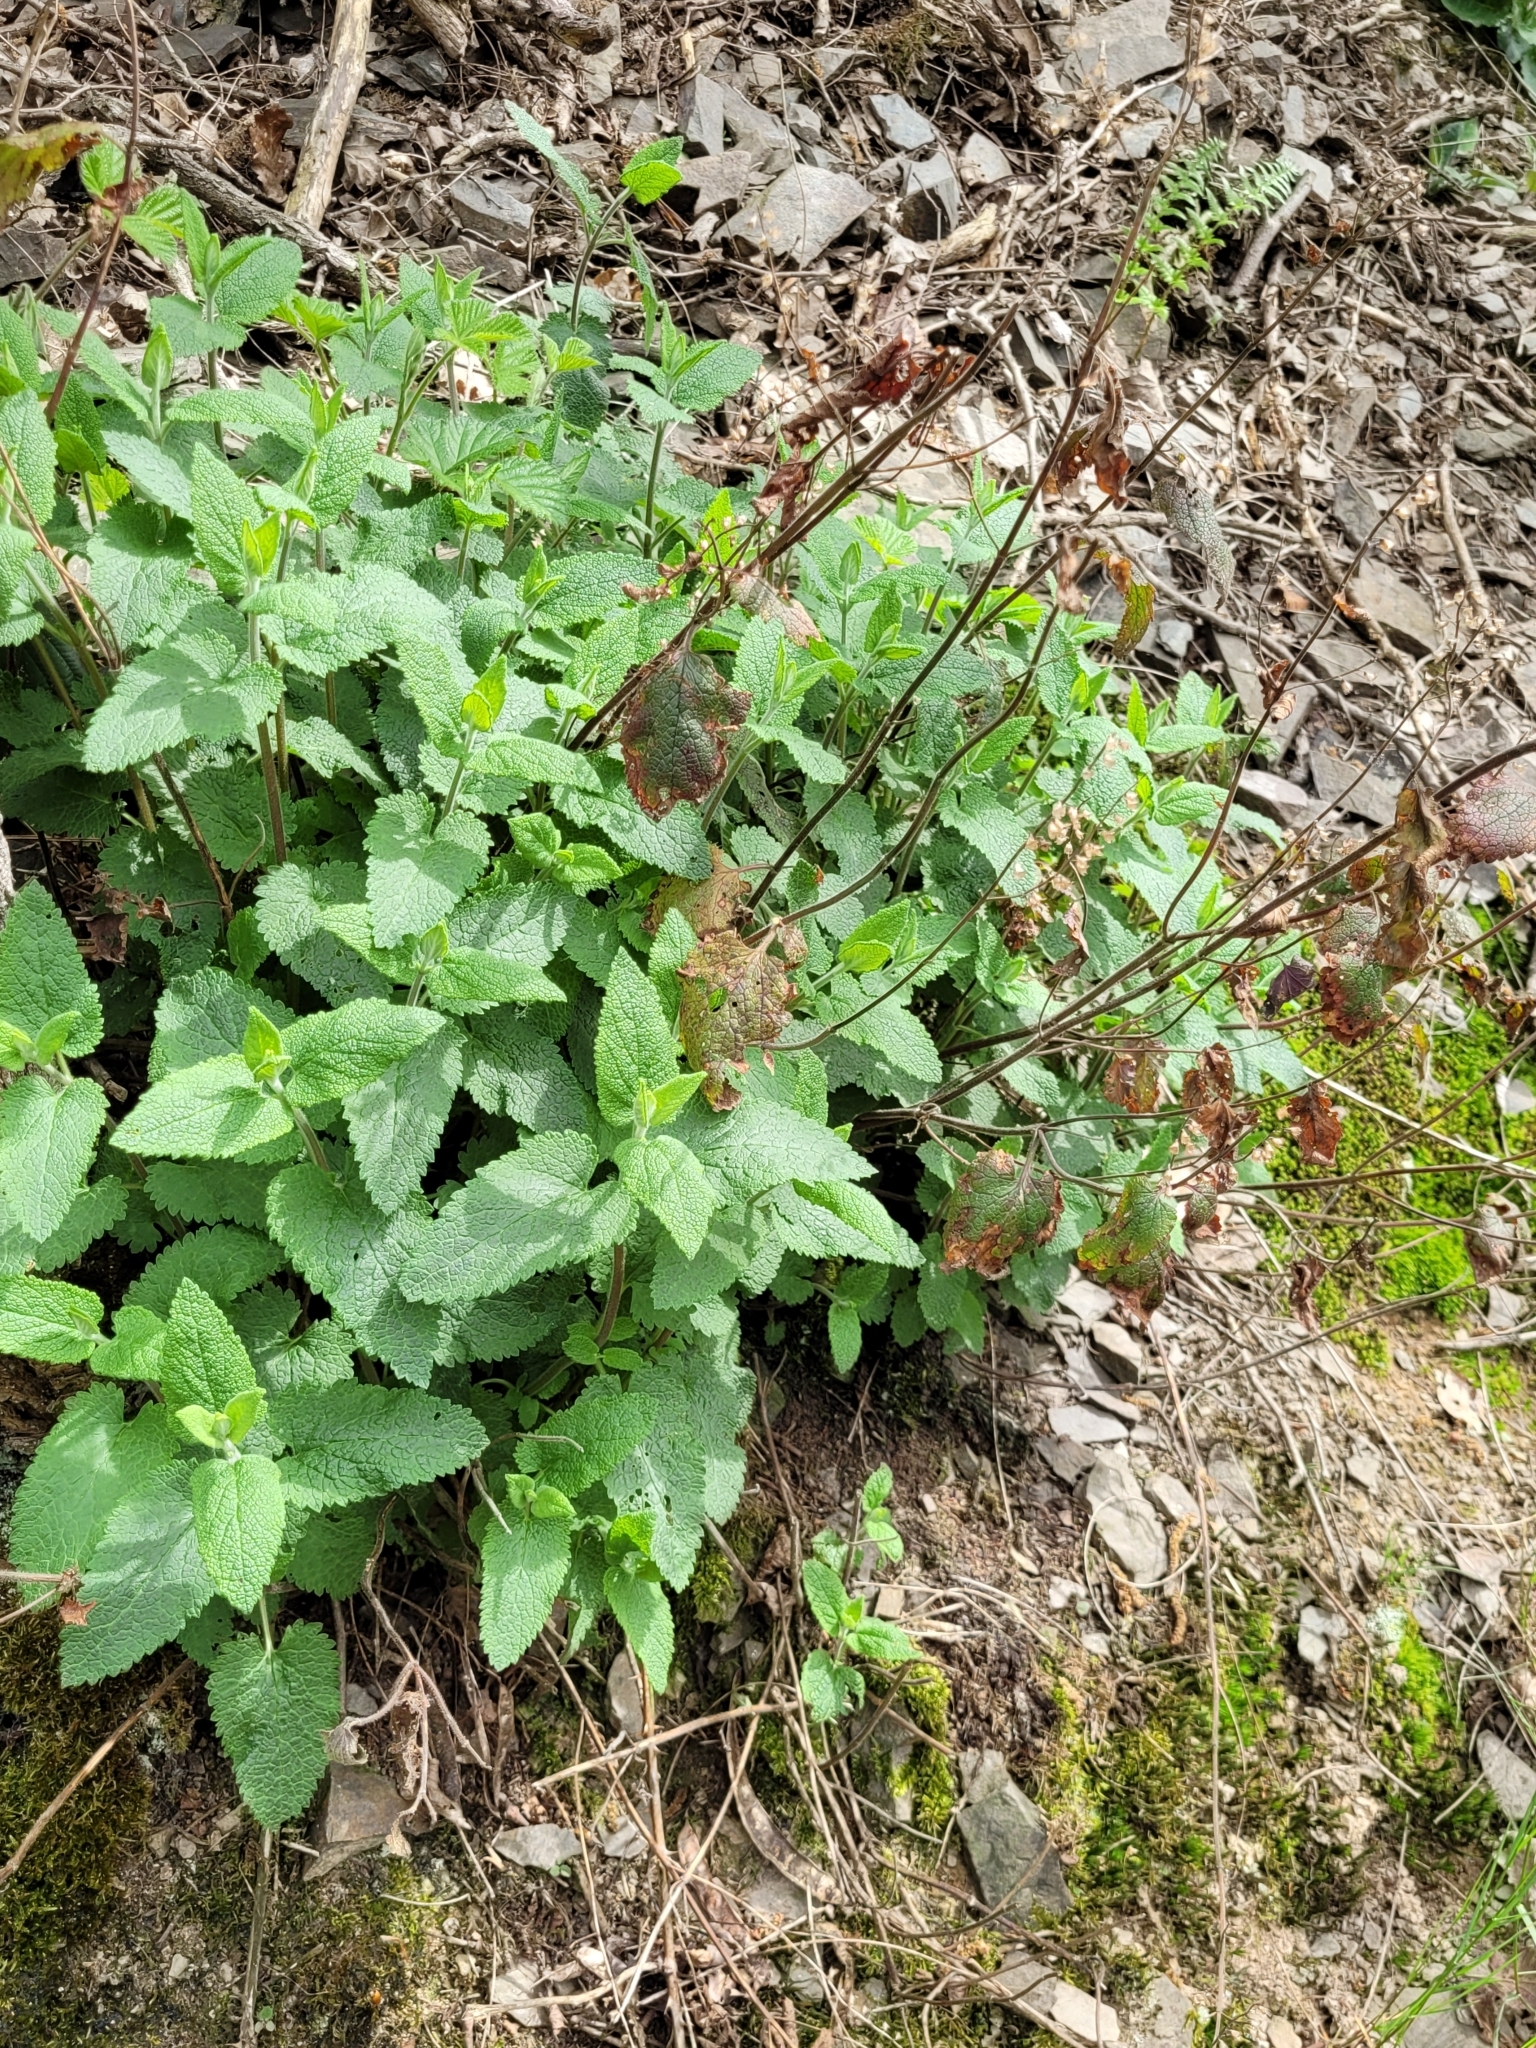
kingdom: Plantae
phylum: Tracheophyta
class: Magnoliopsida
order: Lamiales
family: Lamiaceae
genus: Teucrium
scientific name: Teucrium scorodonia
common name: Woodland germander
